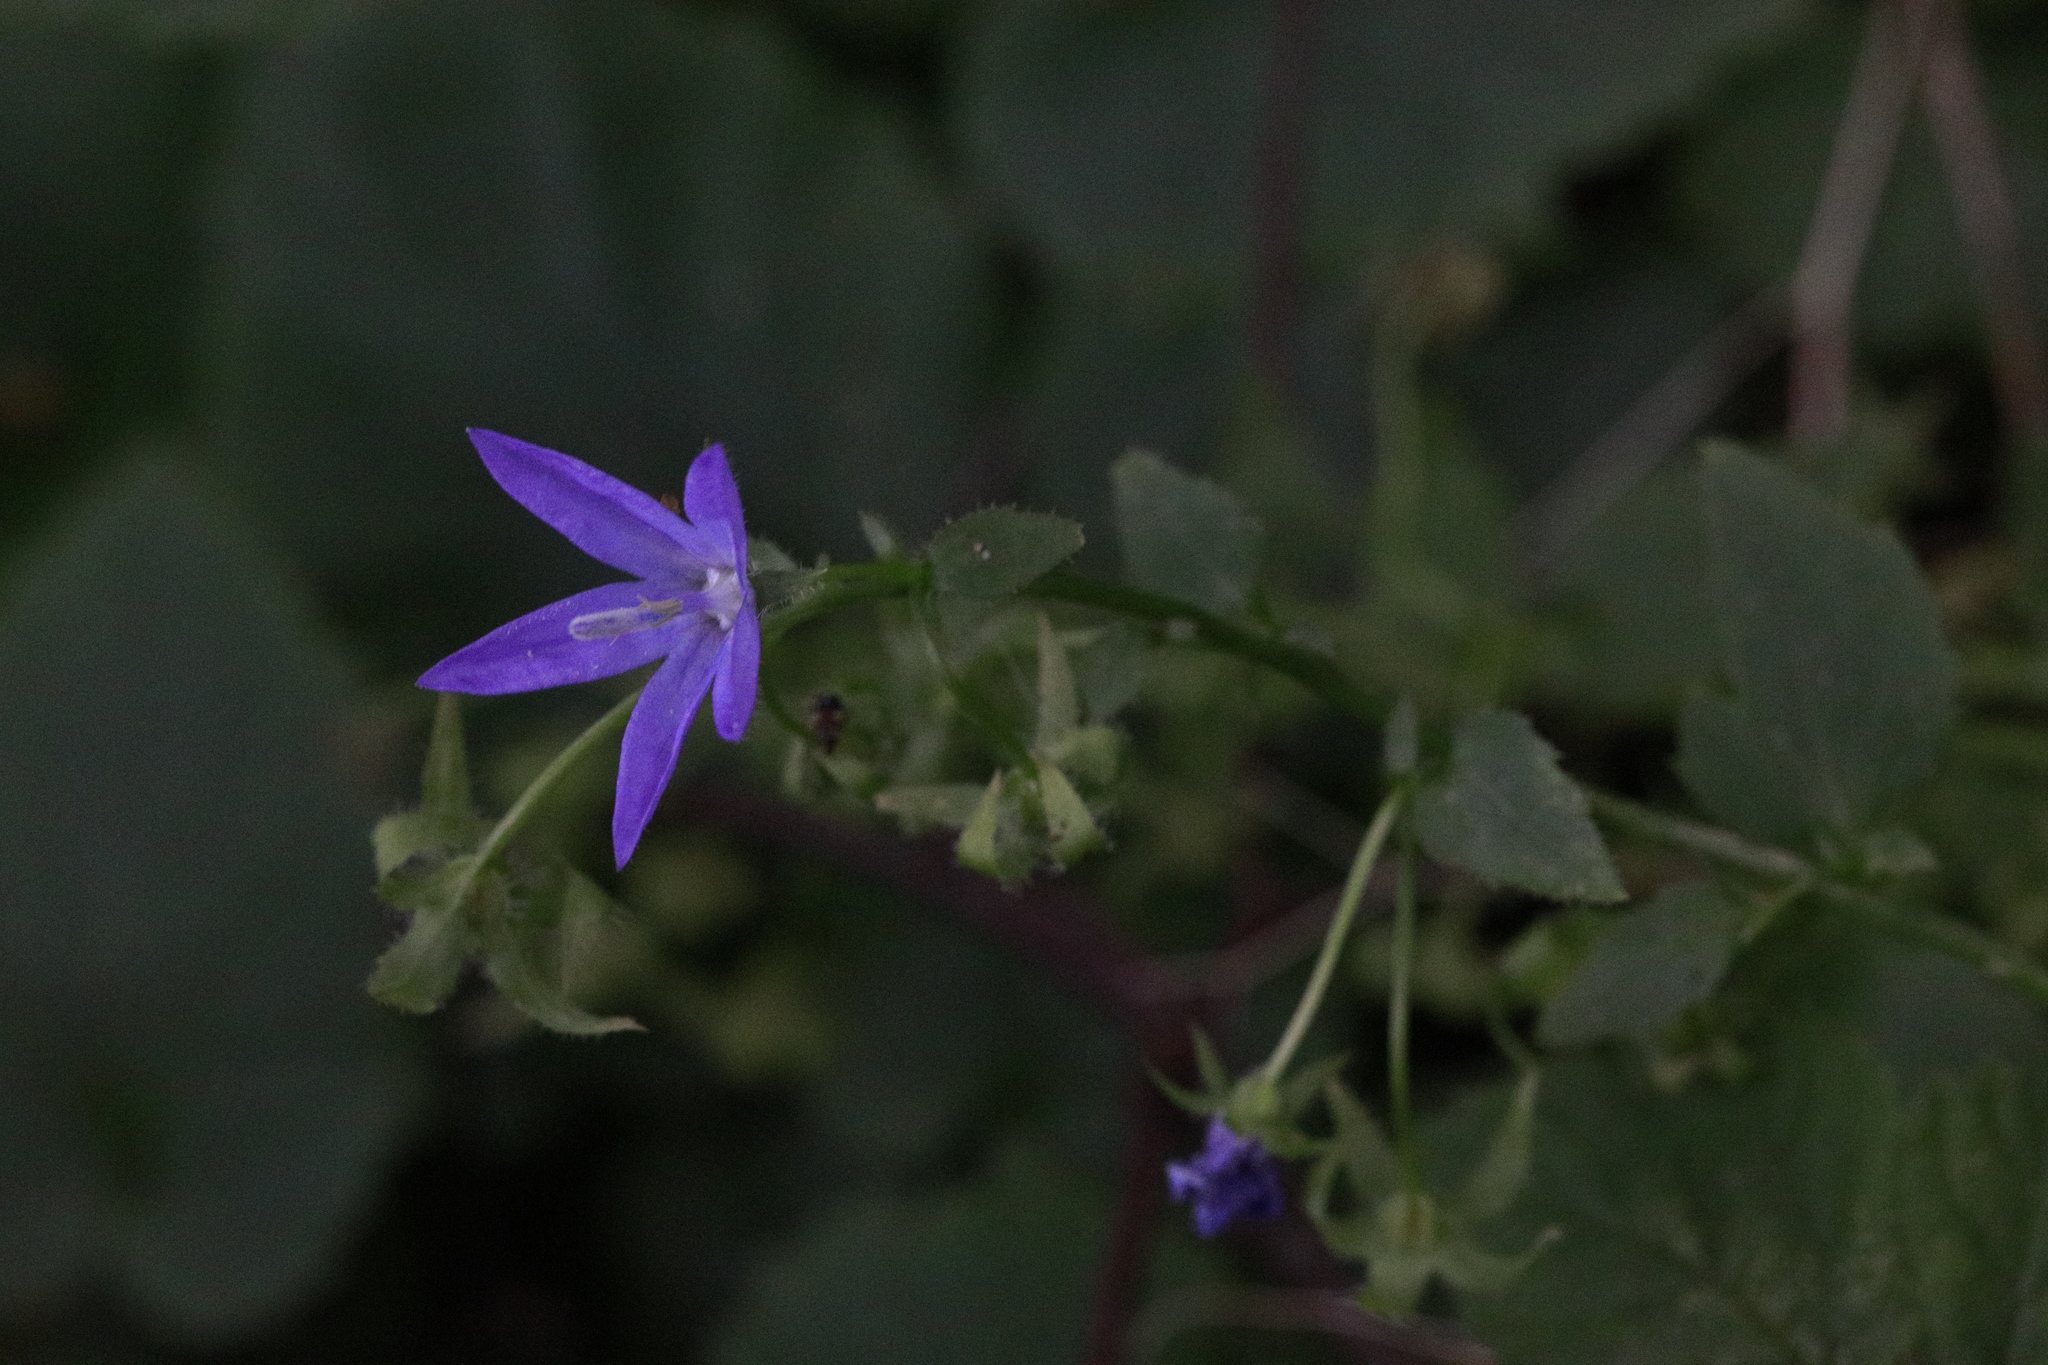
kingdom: Plantae
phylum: Tracheophyta
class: Magnoliopsida
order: Asterales
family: Campanulaceae
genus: Campanula
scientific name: Campanula poscharskyana
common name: Trailing bellflower
